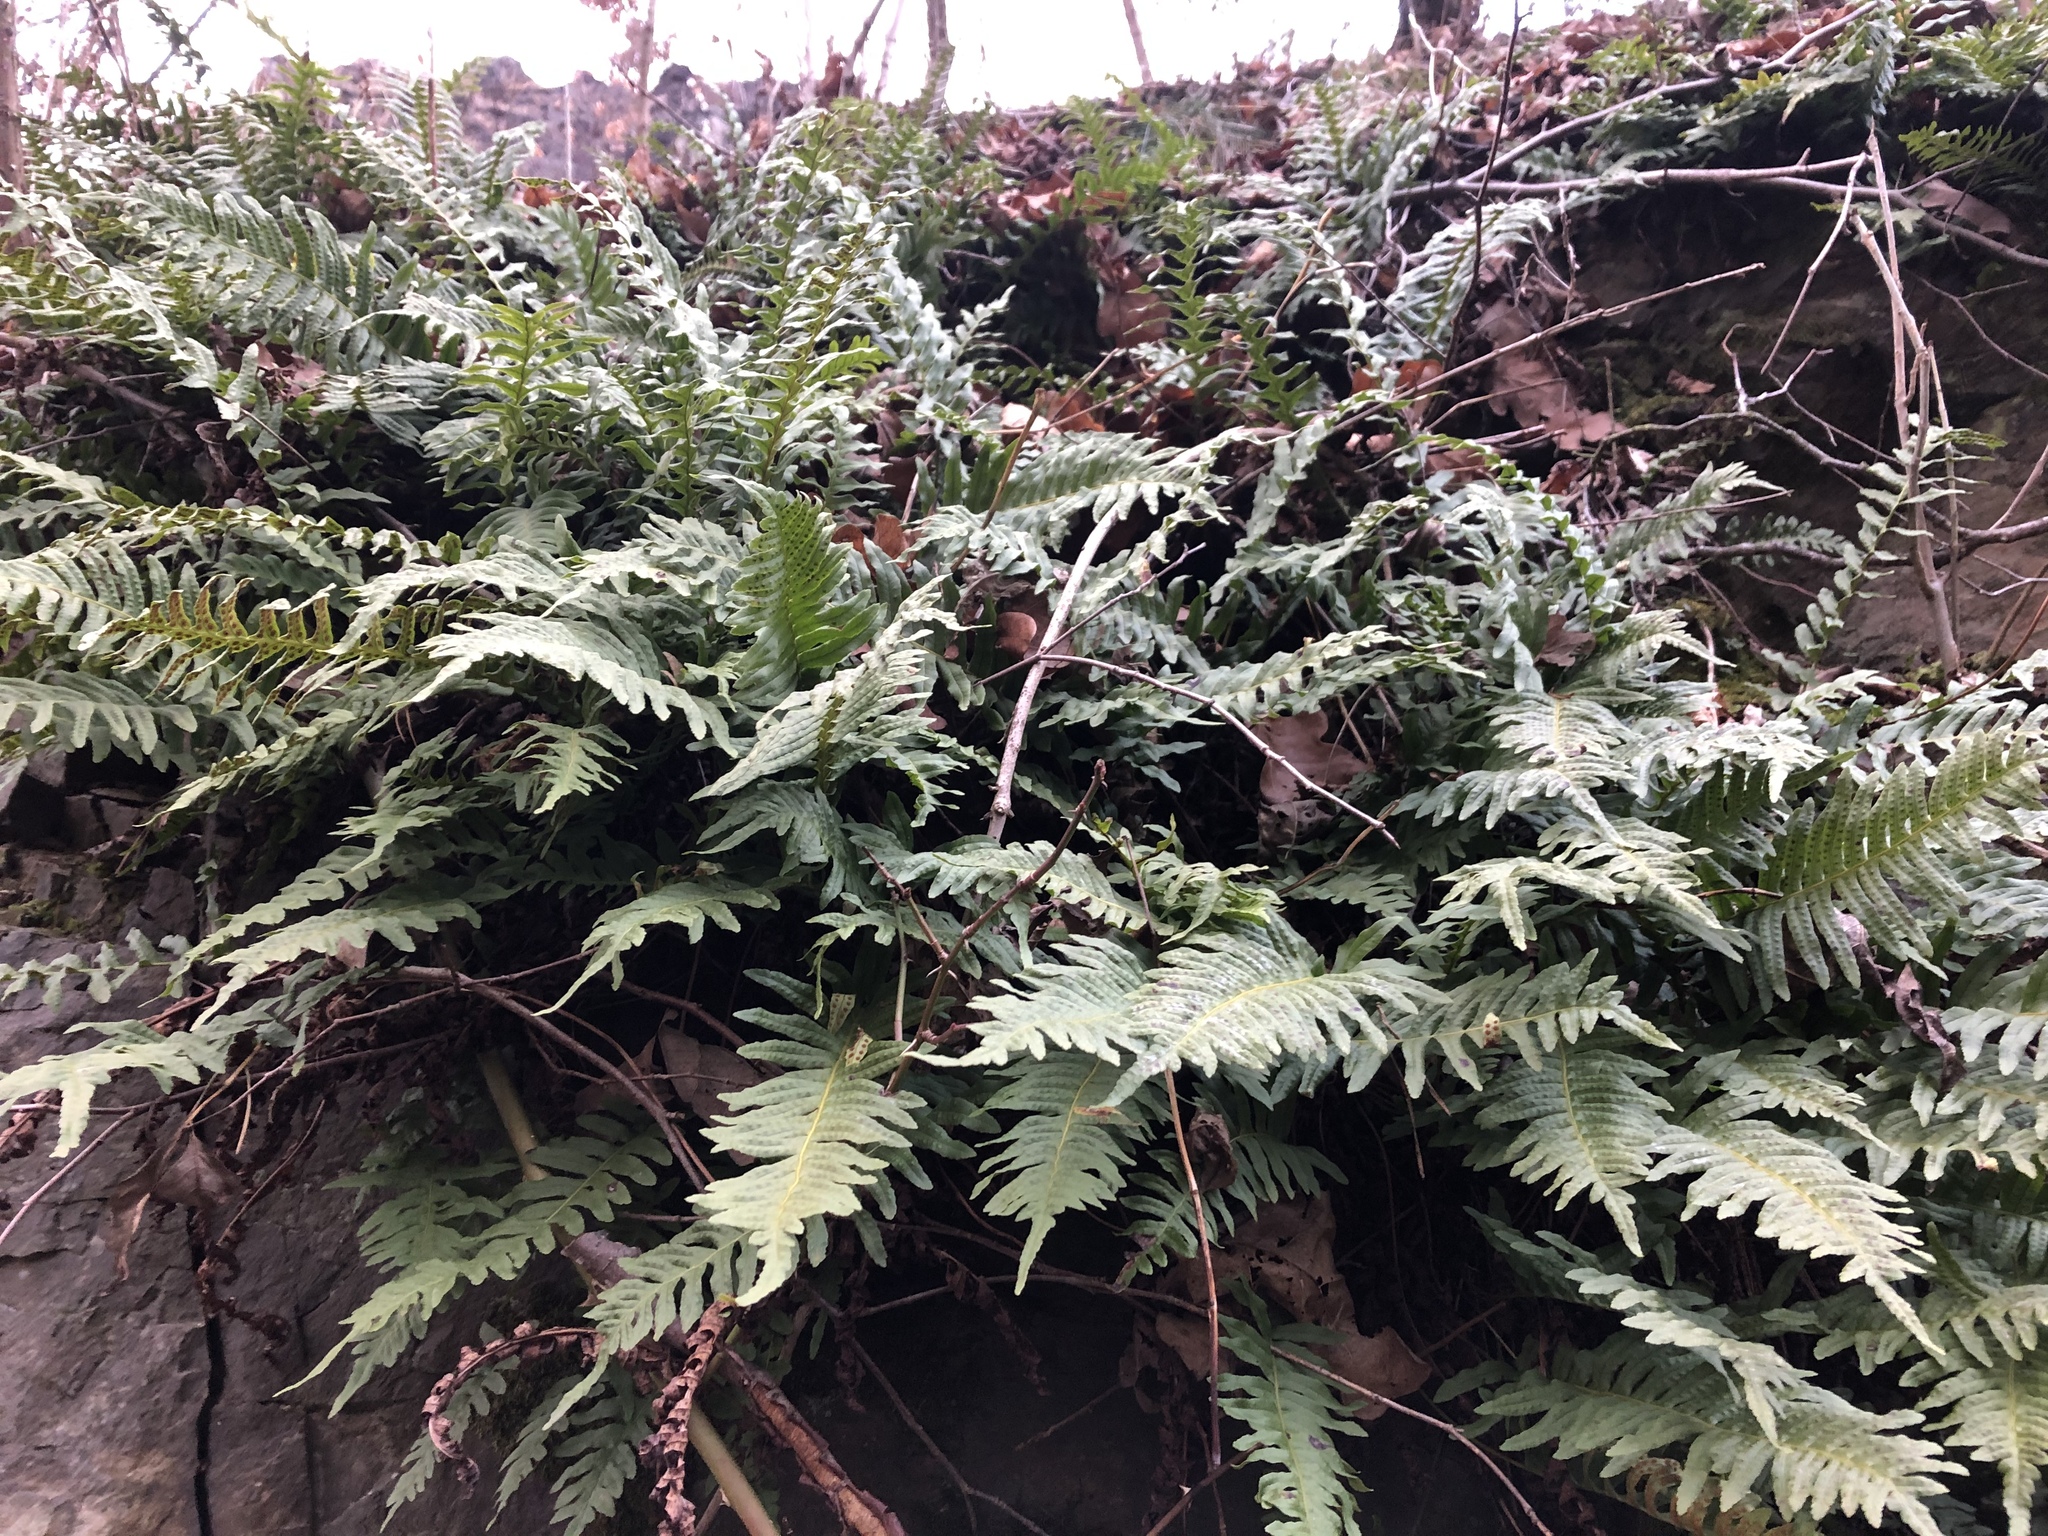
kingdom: Plantae
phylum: Tracheophyta
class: Polypodiopsida
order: Polypodiales
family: Polypodiaceae
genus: Polypodium
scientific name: Polypodium vulgare
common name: Common polypody
